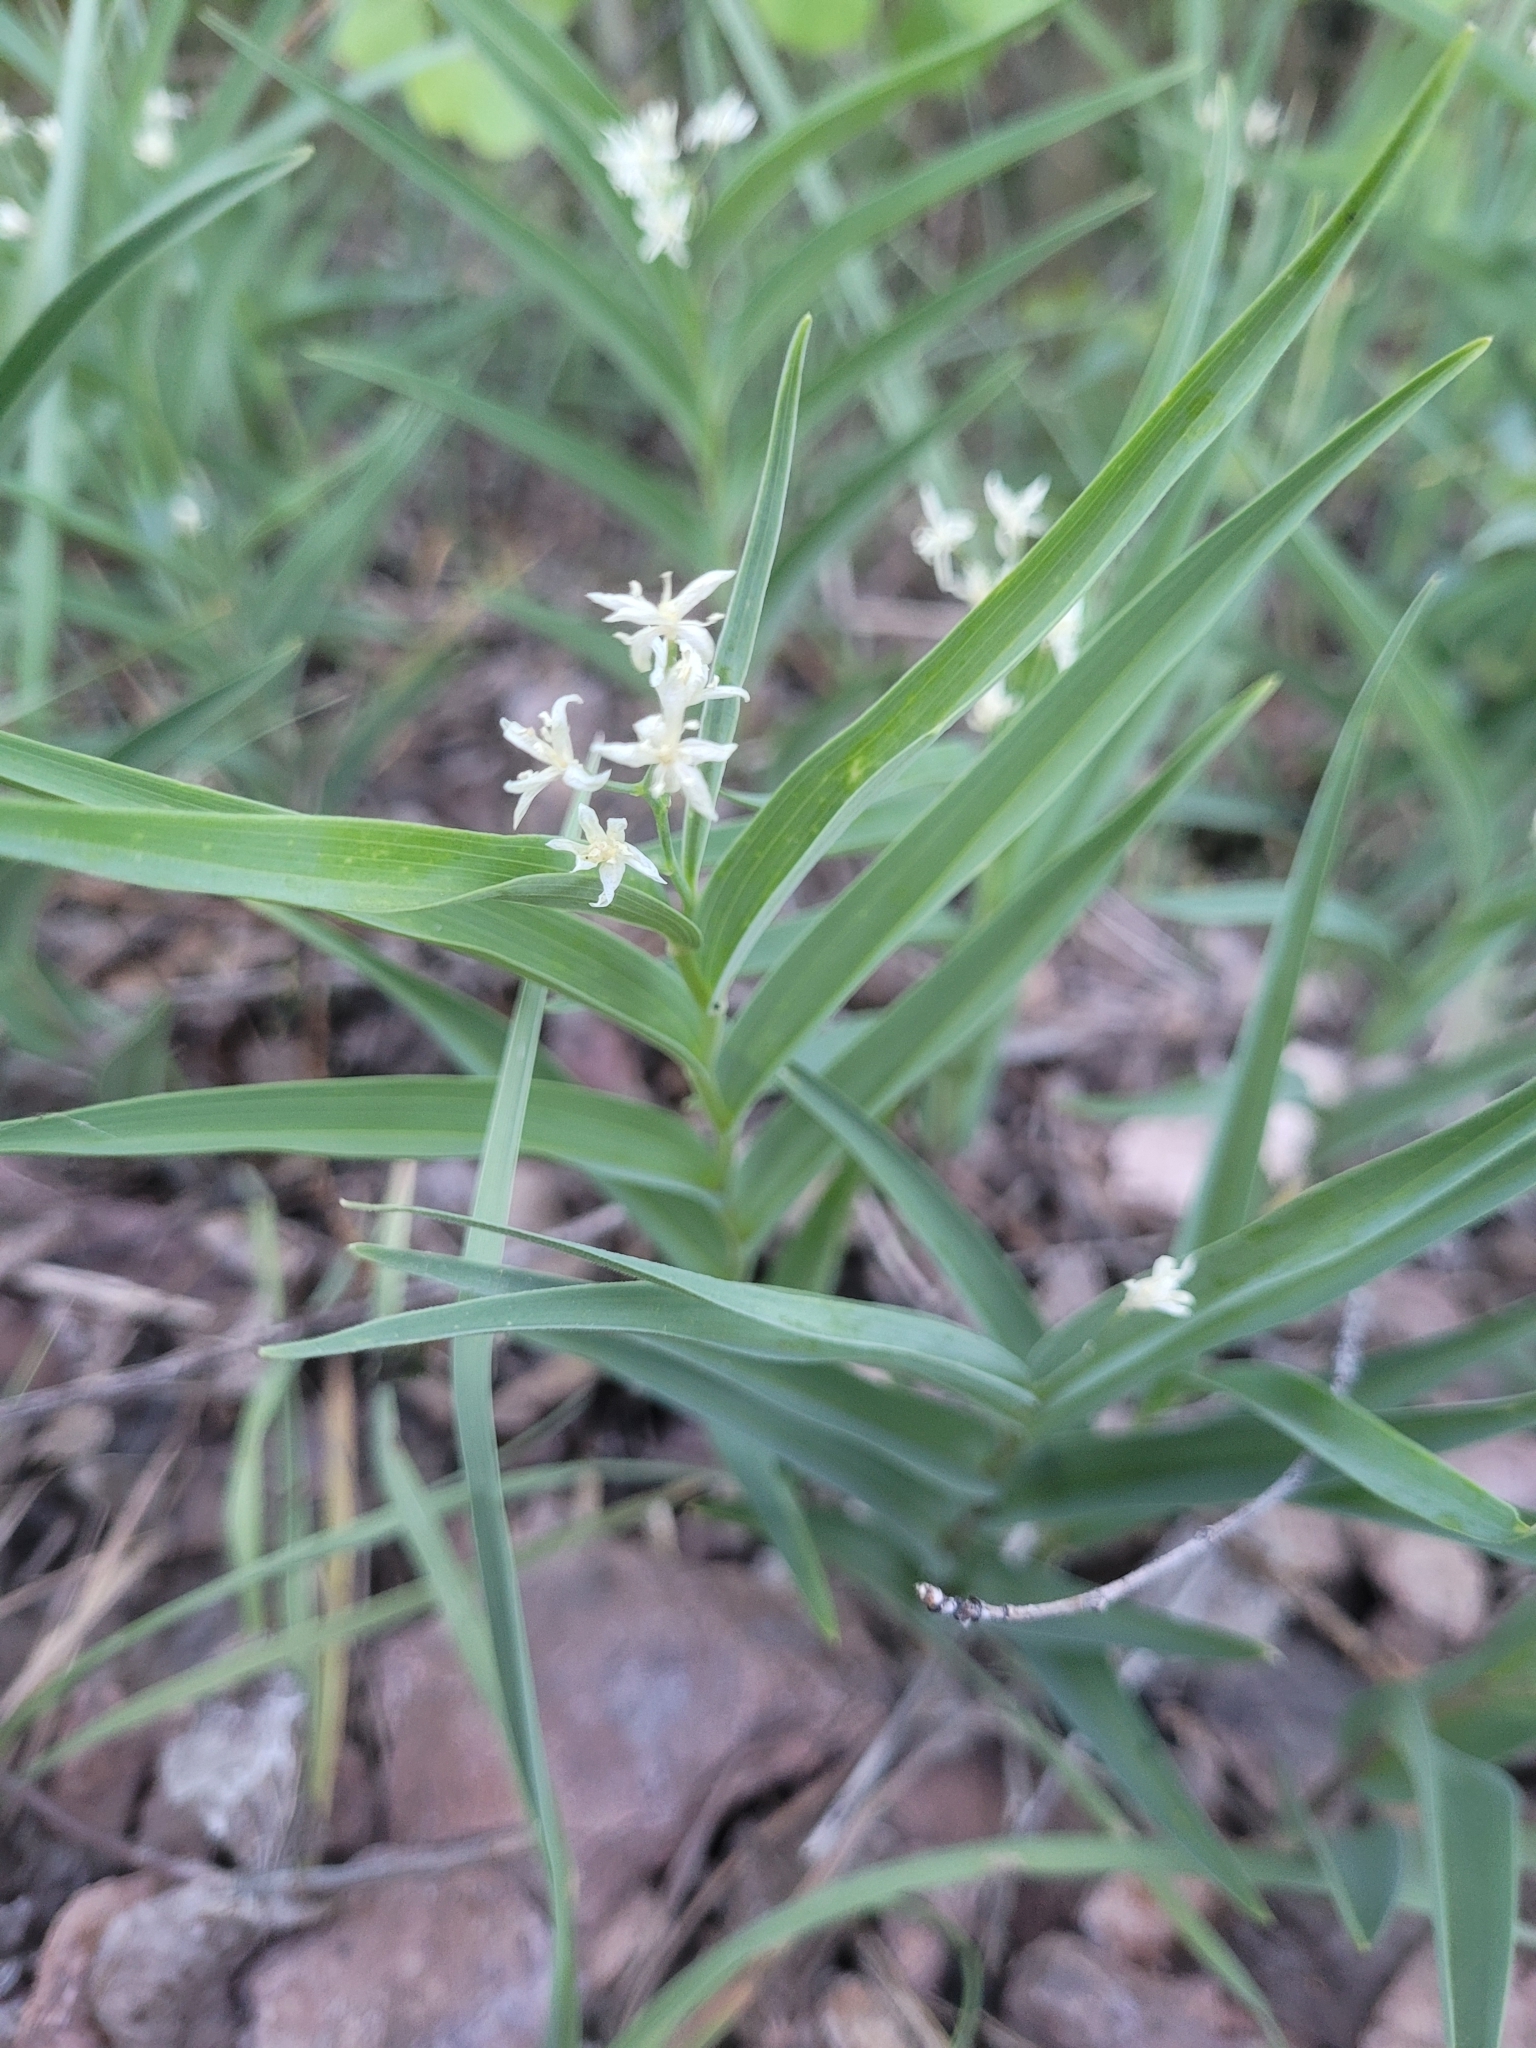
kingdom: Plantae
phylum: Tracheophyta
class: Liliopsida
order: Asparagales
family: Asparagaceae
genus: Maianthemum
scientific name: Maianthemum stellatum
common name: Little false solomon's seal
